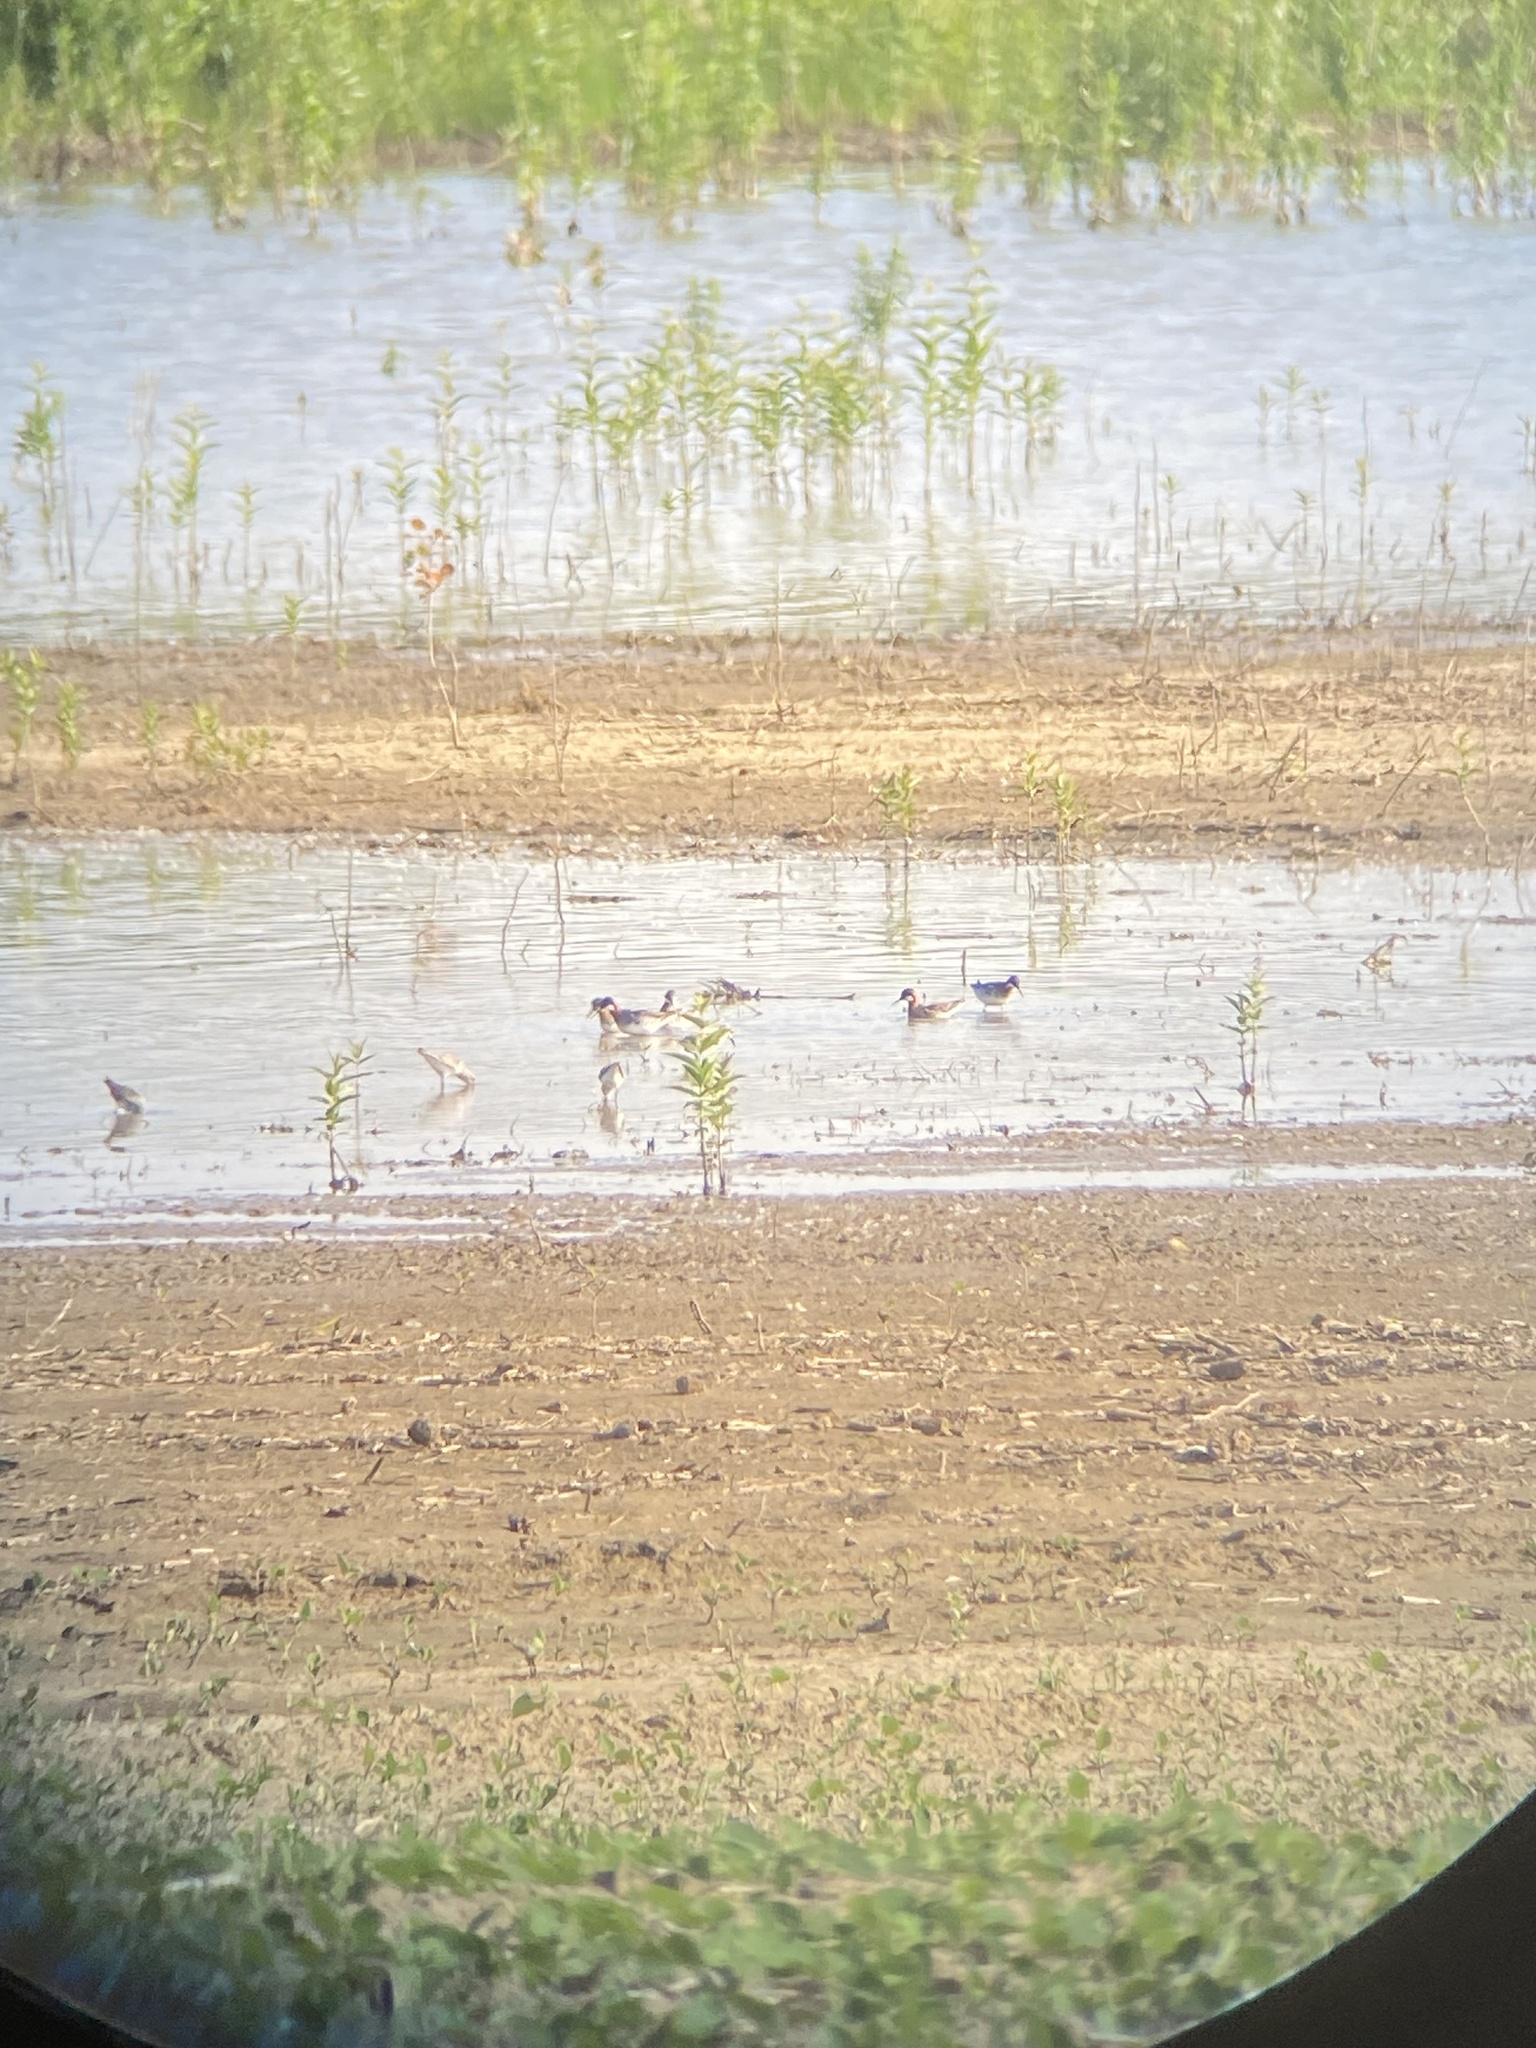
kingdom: Animalia
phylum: Chordata
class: Aves
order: Charadriiformes
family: Scolopacidae
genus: Phalaropus
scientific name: Phalaropus lobatus
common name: Red-necked phalarope
